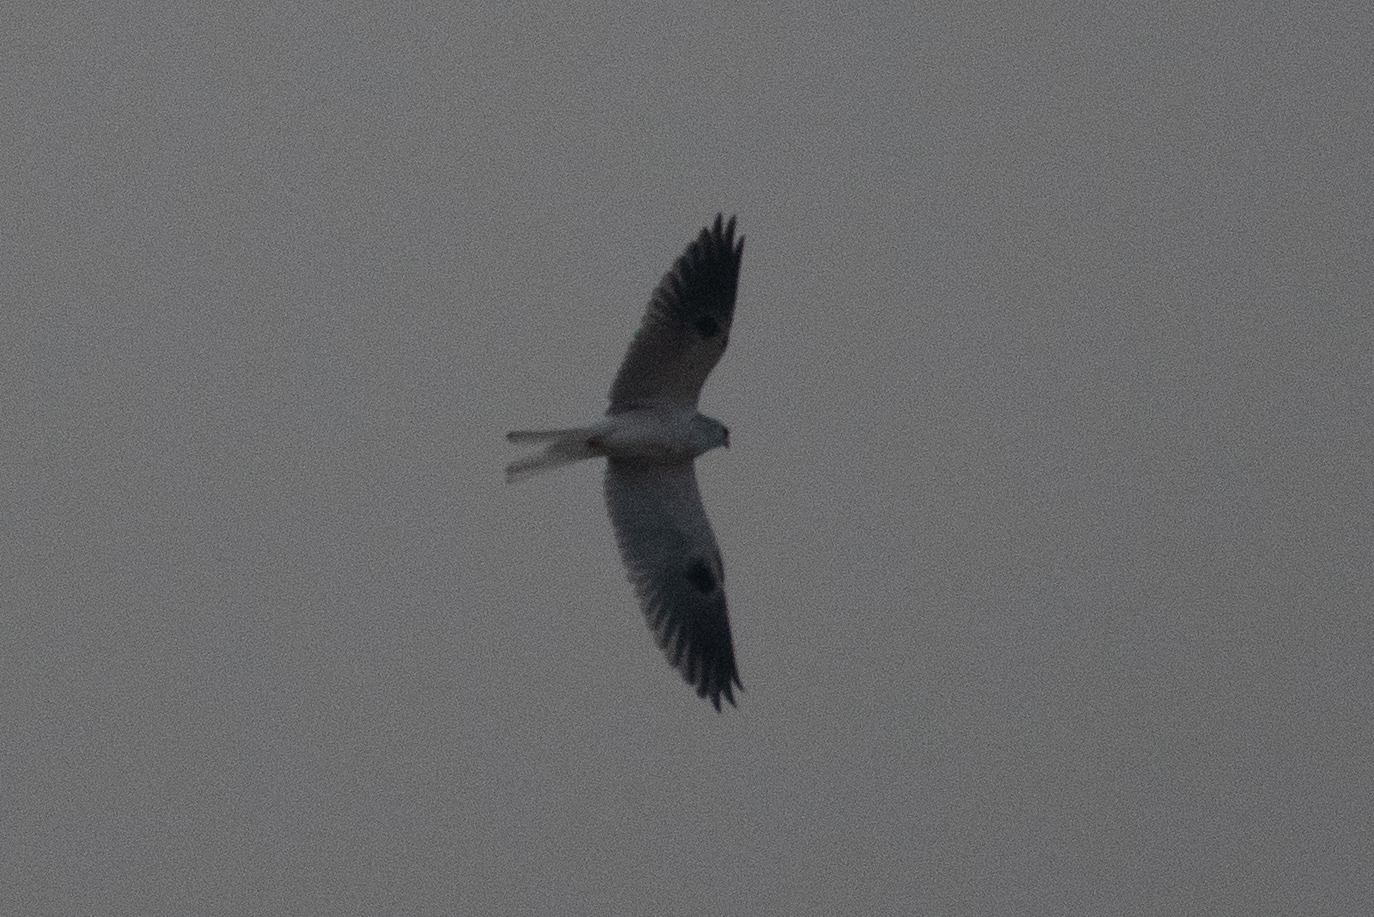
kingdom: Animalia
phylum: Chordata
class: Aves
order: Accipitriformes
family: Accipitridae
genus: Elanus
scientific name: Elanus leucurus
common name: White-tailed kite
